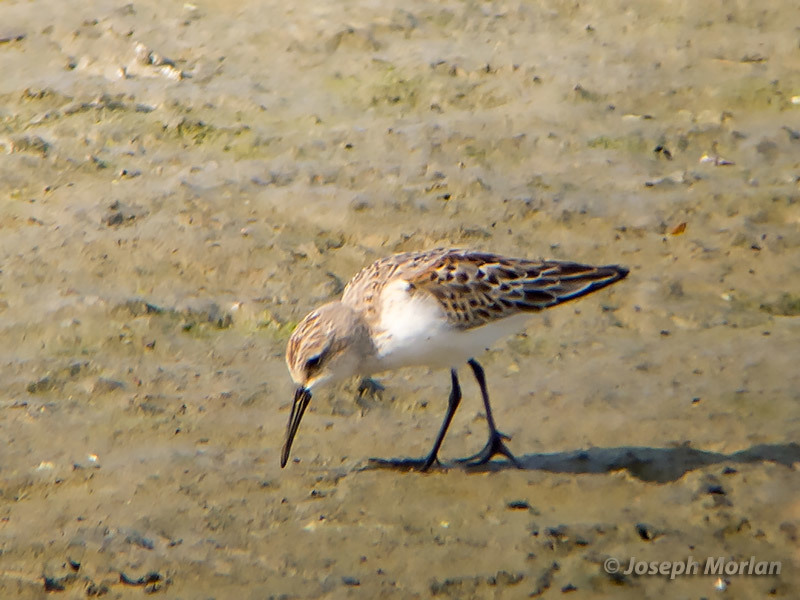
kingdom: Animalia
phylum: Chordata
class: Aves
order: Charadriiformes
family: Scolopacidae
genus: Calidris
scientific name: Calidris mauri
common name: Western sandpiper
